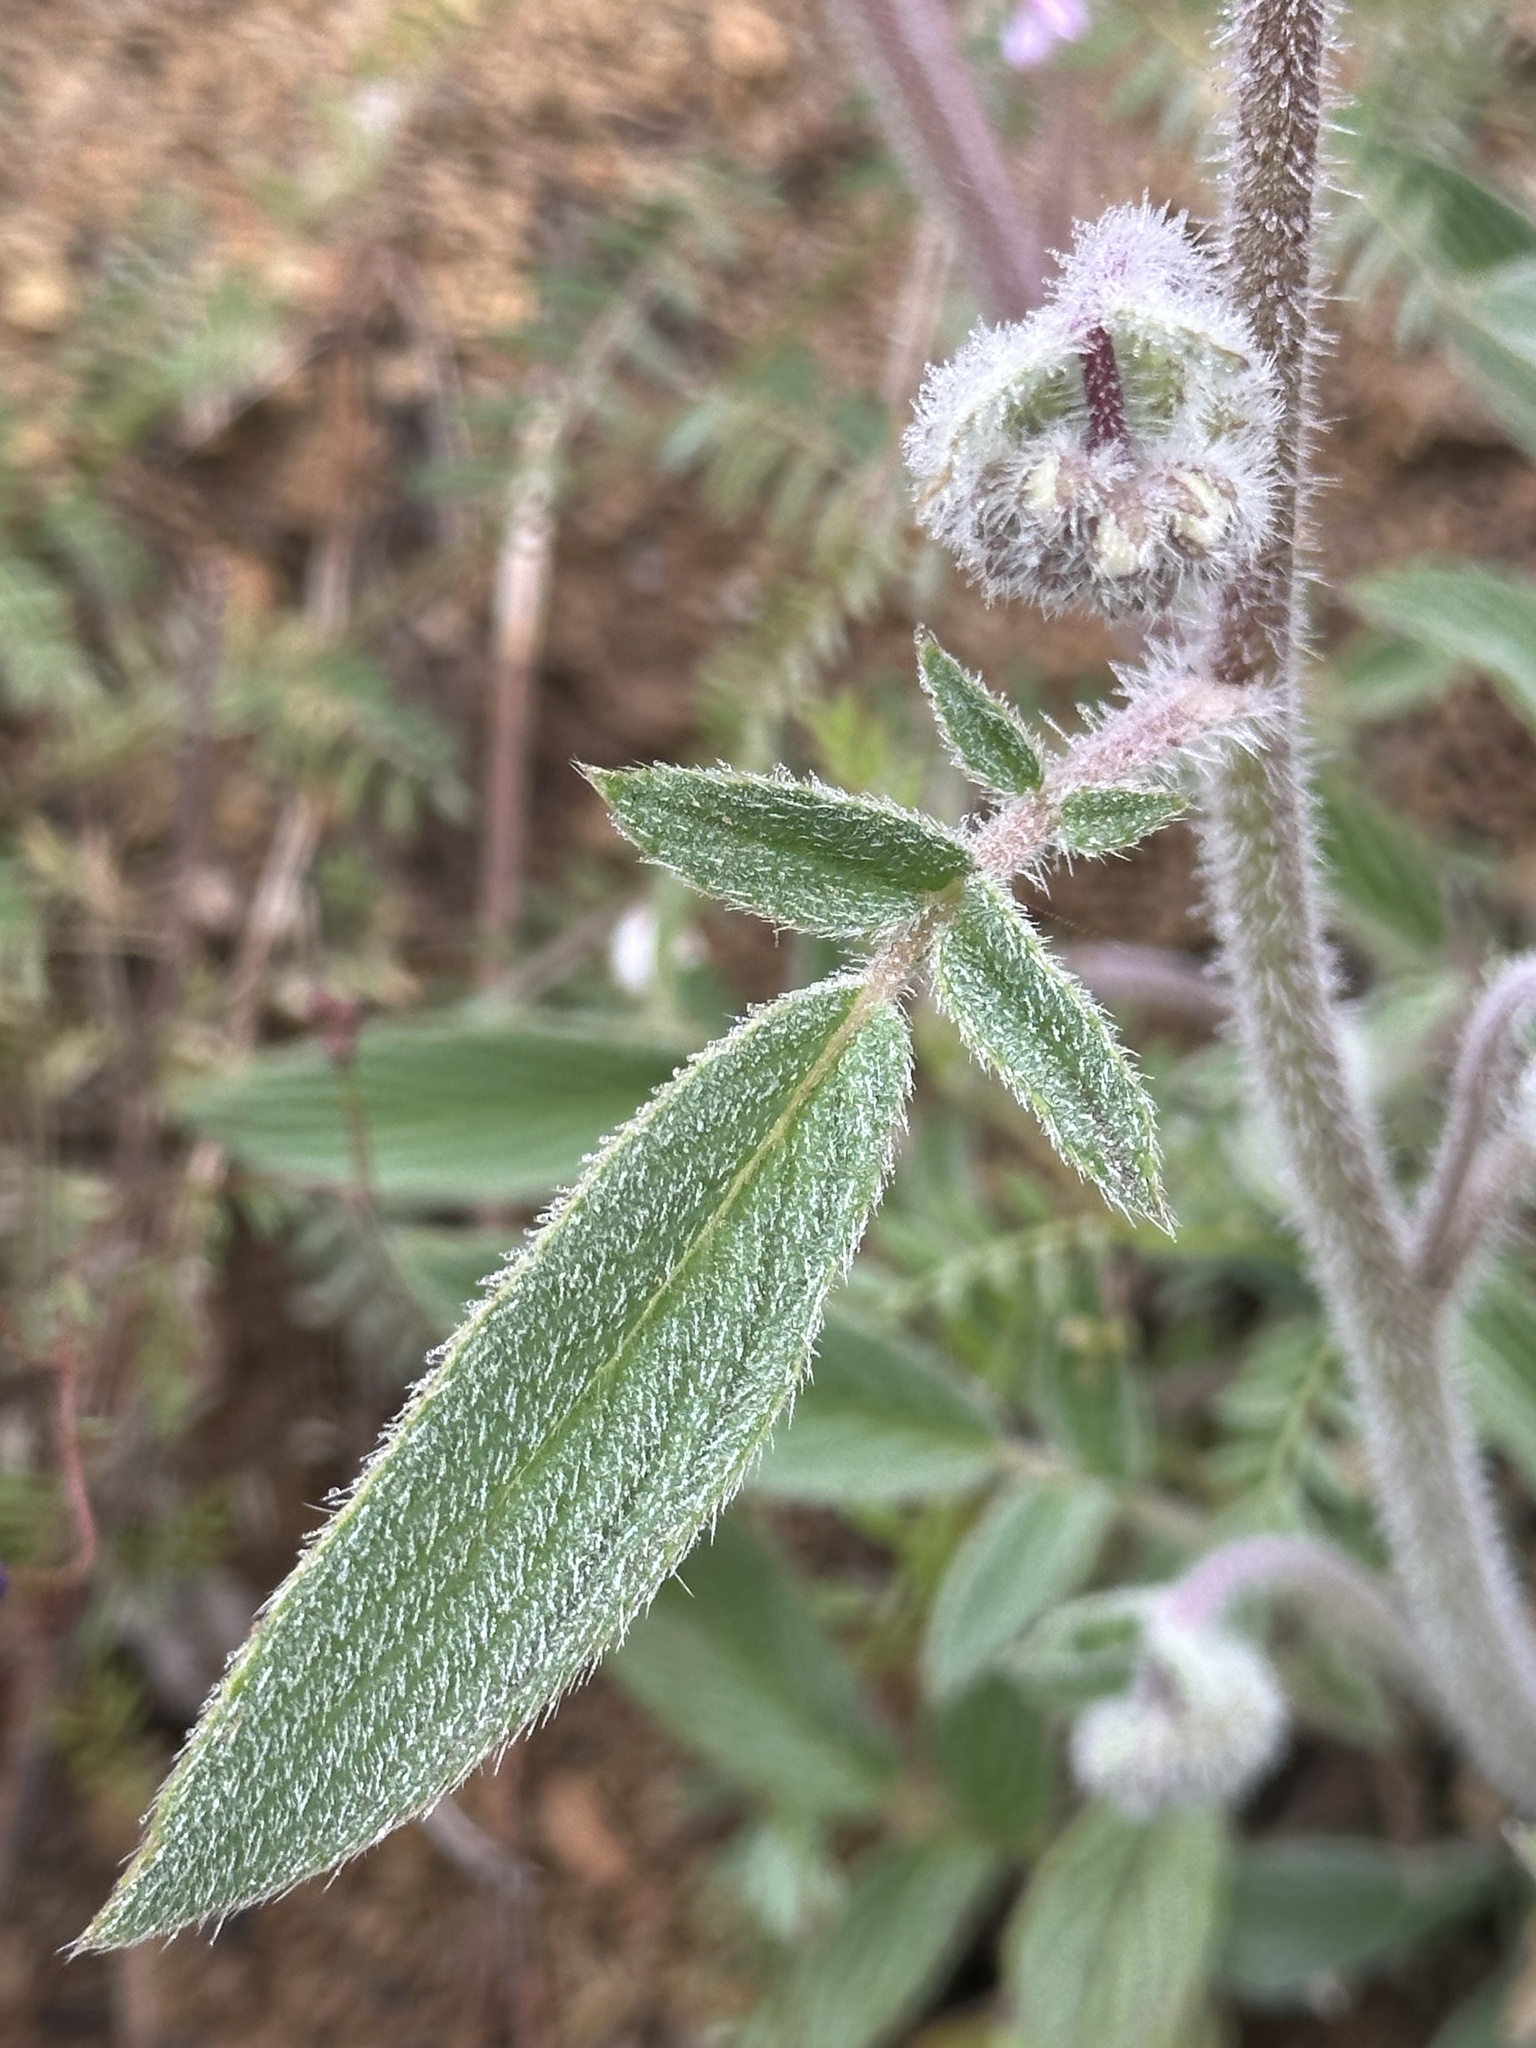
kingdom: Plantae
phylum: Tracheophyta
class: Magnoliopsida
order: Boraginales
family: Hydrophyllaceae
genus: Phacelia
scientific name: Phacelia imbricata
